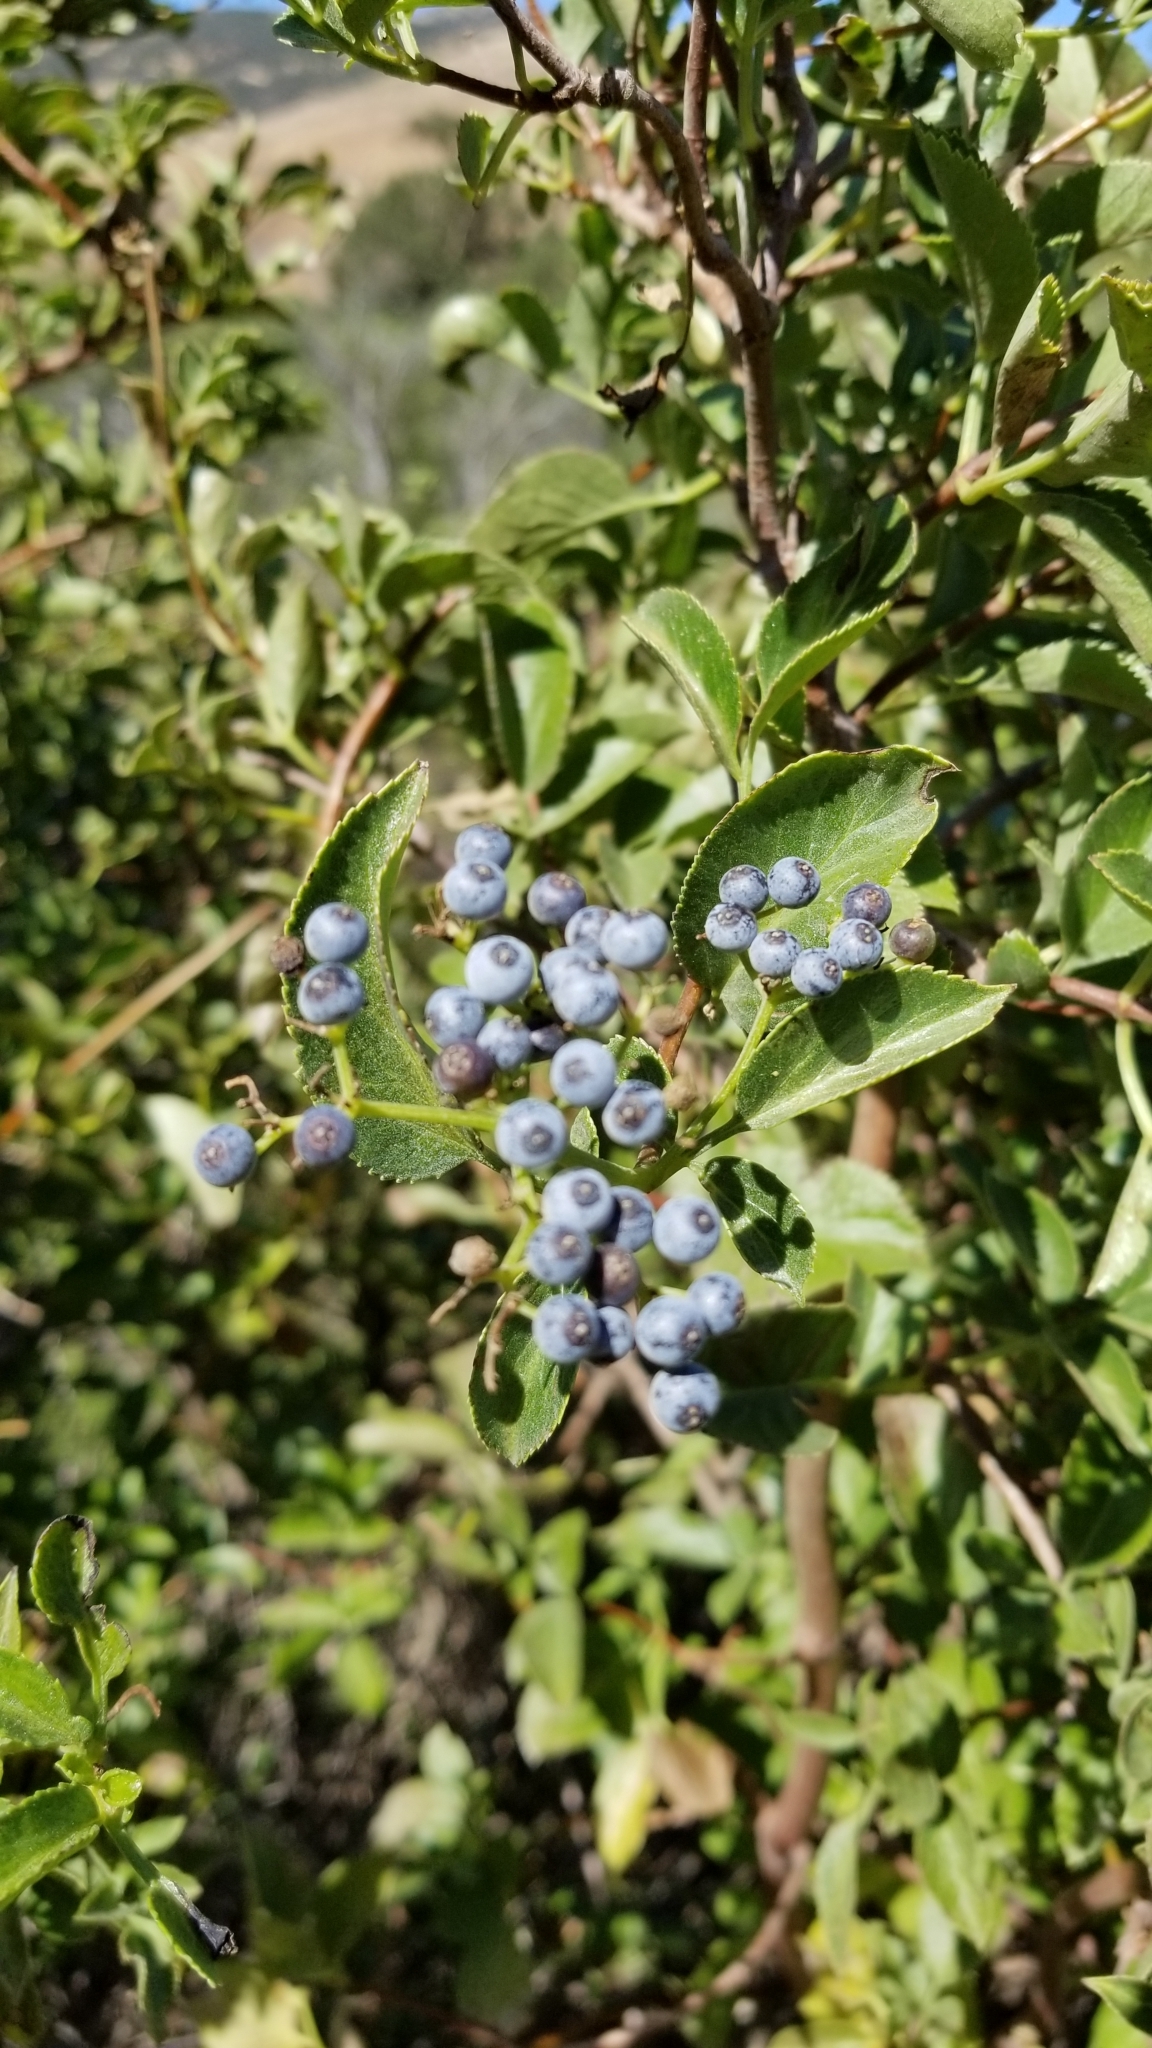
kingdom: Plantae
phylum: Tracheophyta
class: Magnoliopsida
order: Dipsacales
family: Viburnaceae
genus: Sambucus
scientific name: Sambucus cerulea
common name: Blue elder
